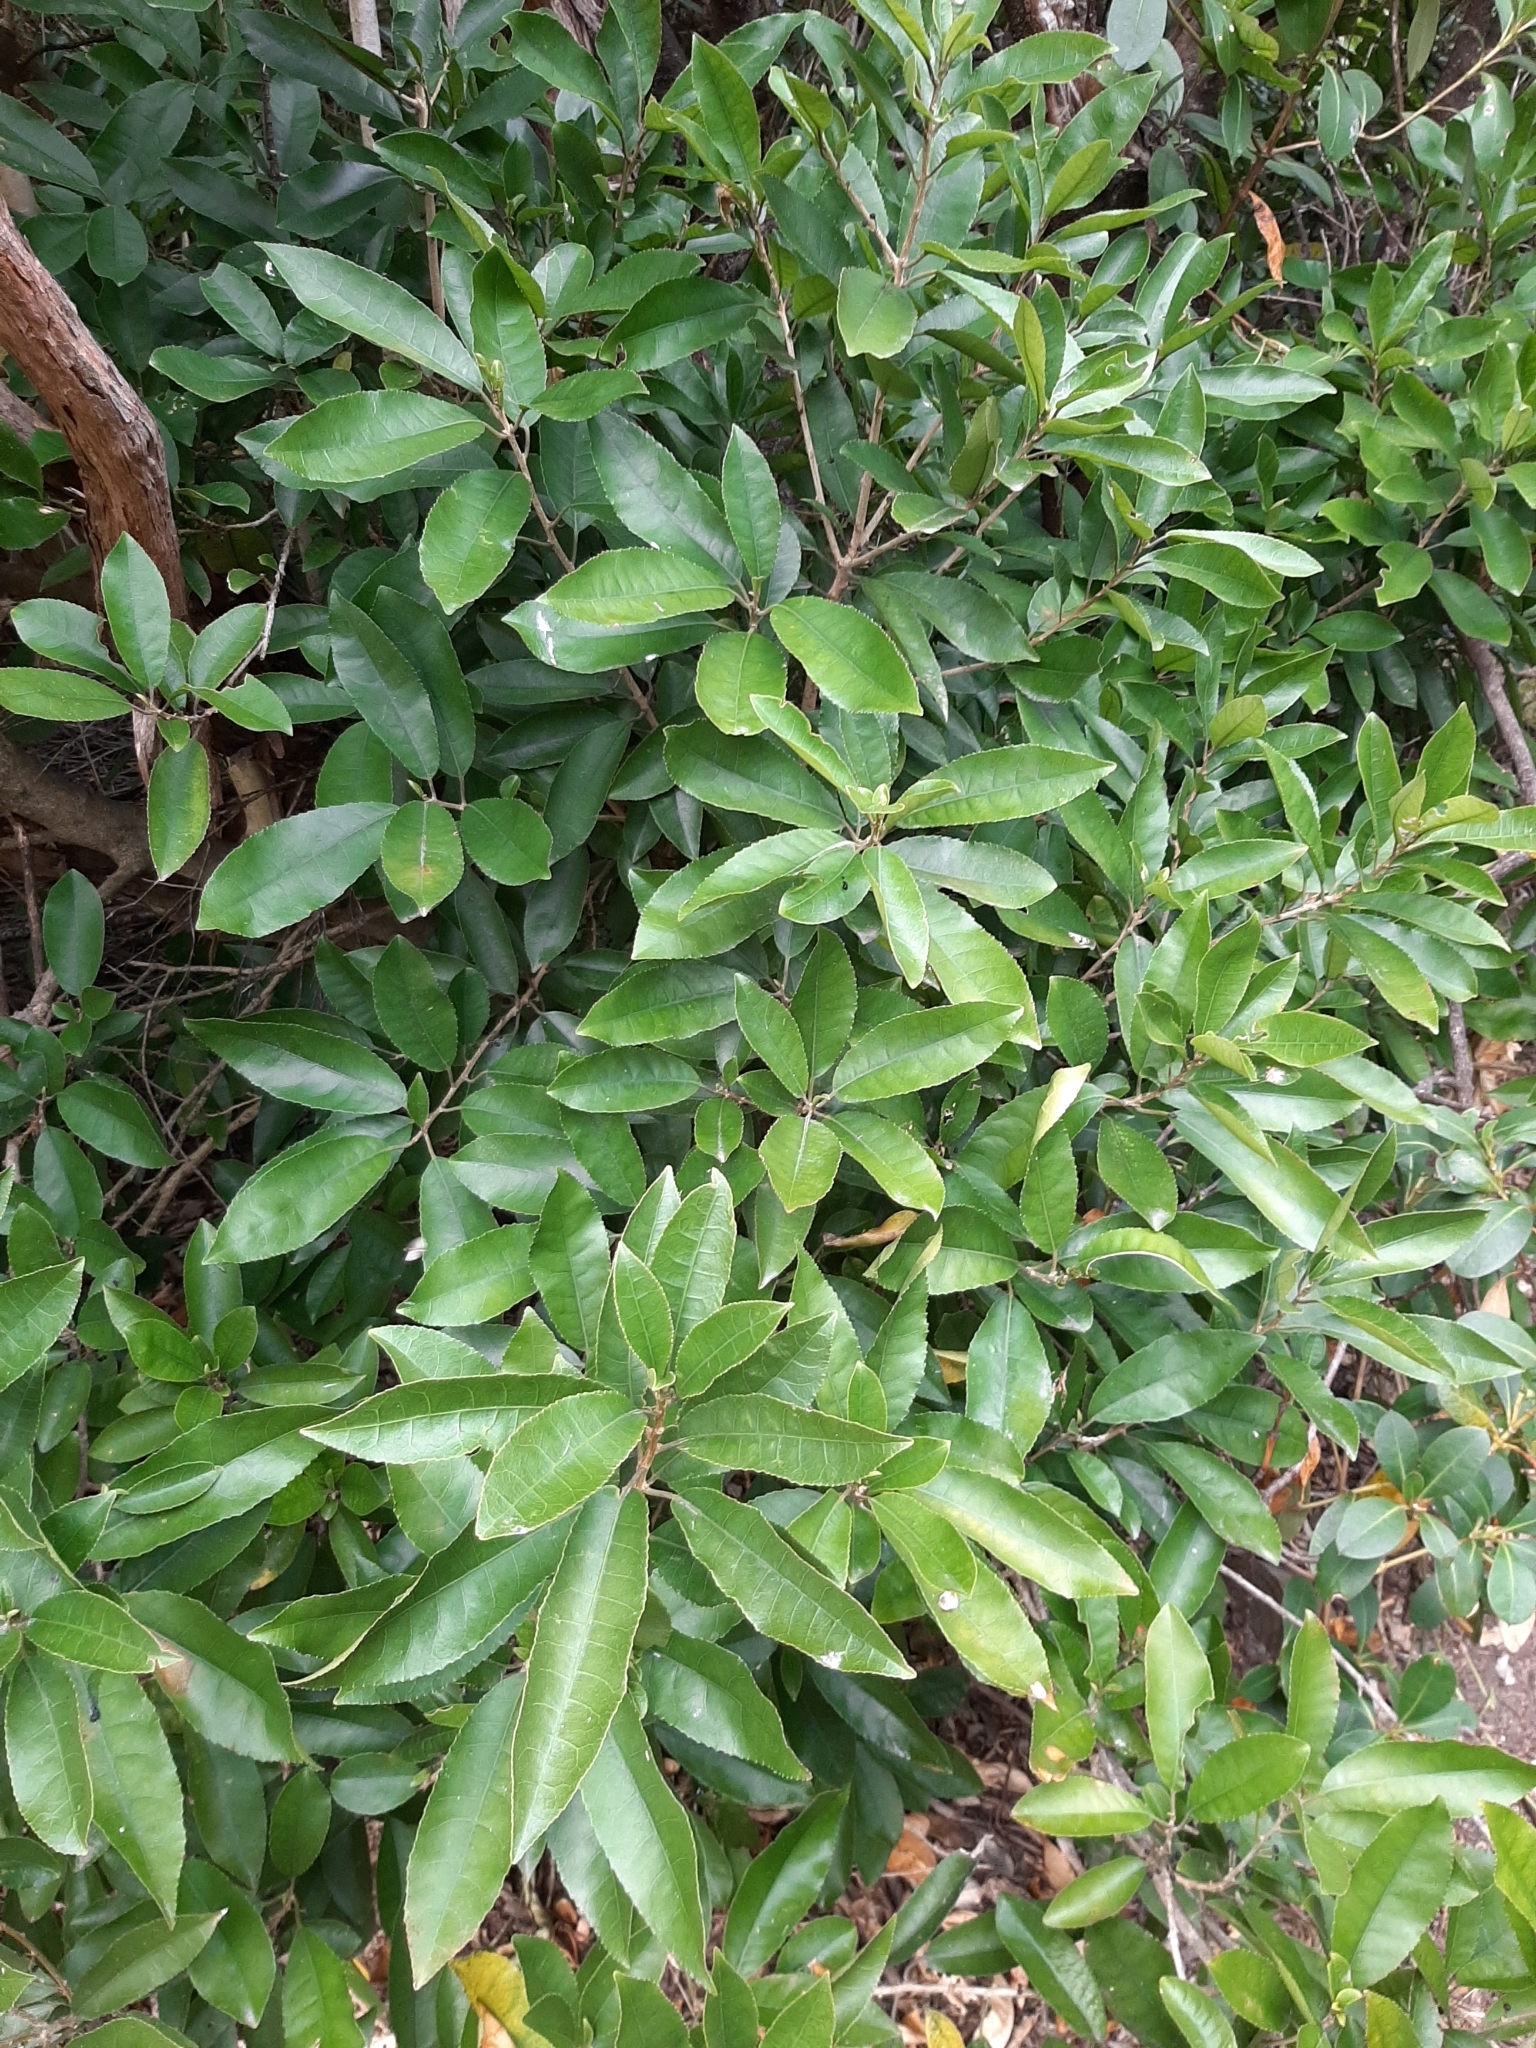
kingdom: Plantae
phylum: Tracheophyta
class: Magnoliopsida
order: Malpighiales
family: Violaceae
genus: Melicytus
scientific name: Melicytus ramiflorus
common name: Mahoe
